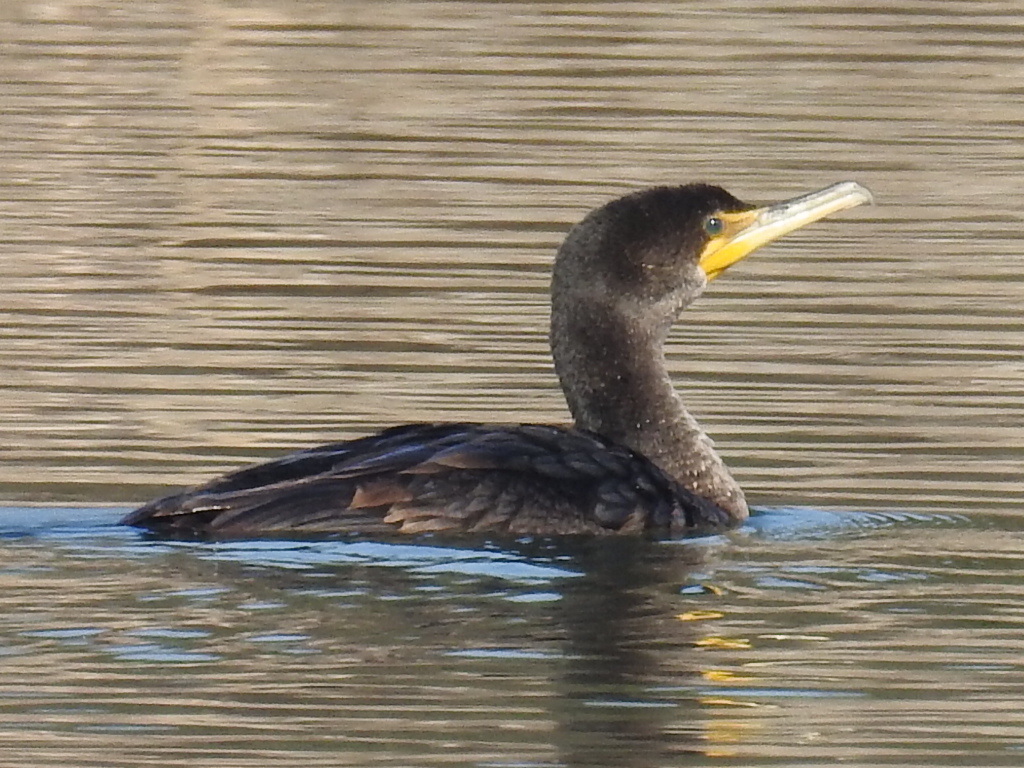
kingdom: Animalia
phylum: Chordata
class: Aves
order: Suliformes
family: Phalacrocoracidae
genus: Phalacrocorax
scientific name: Phalacrocorax auritus
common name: Double-crested cormorant
